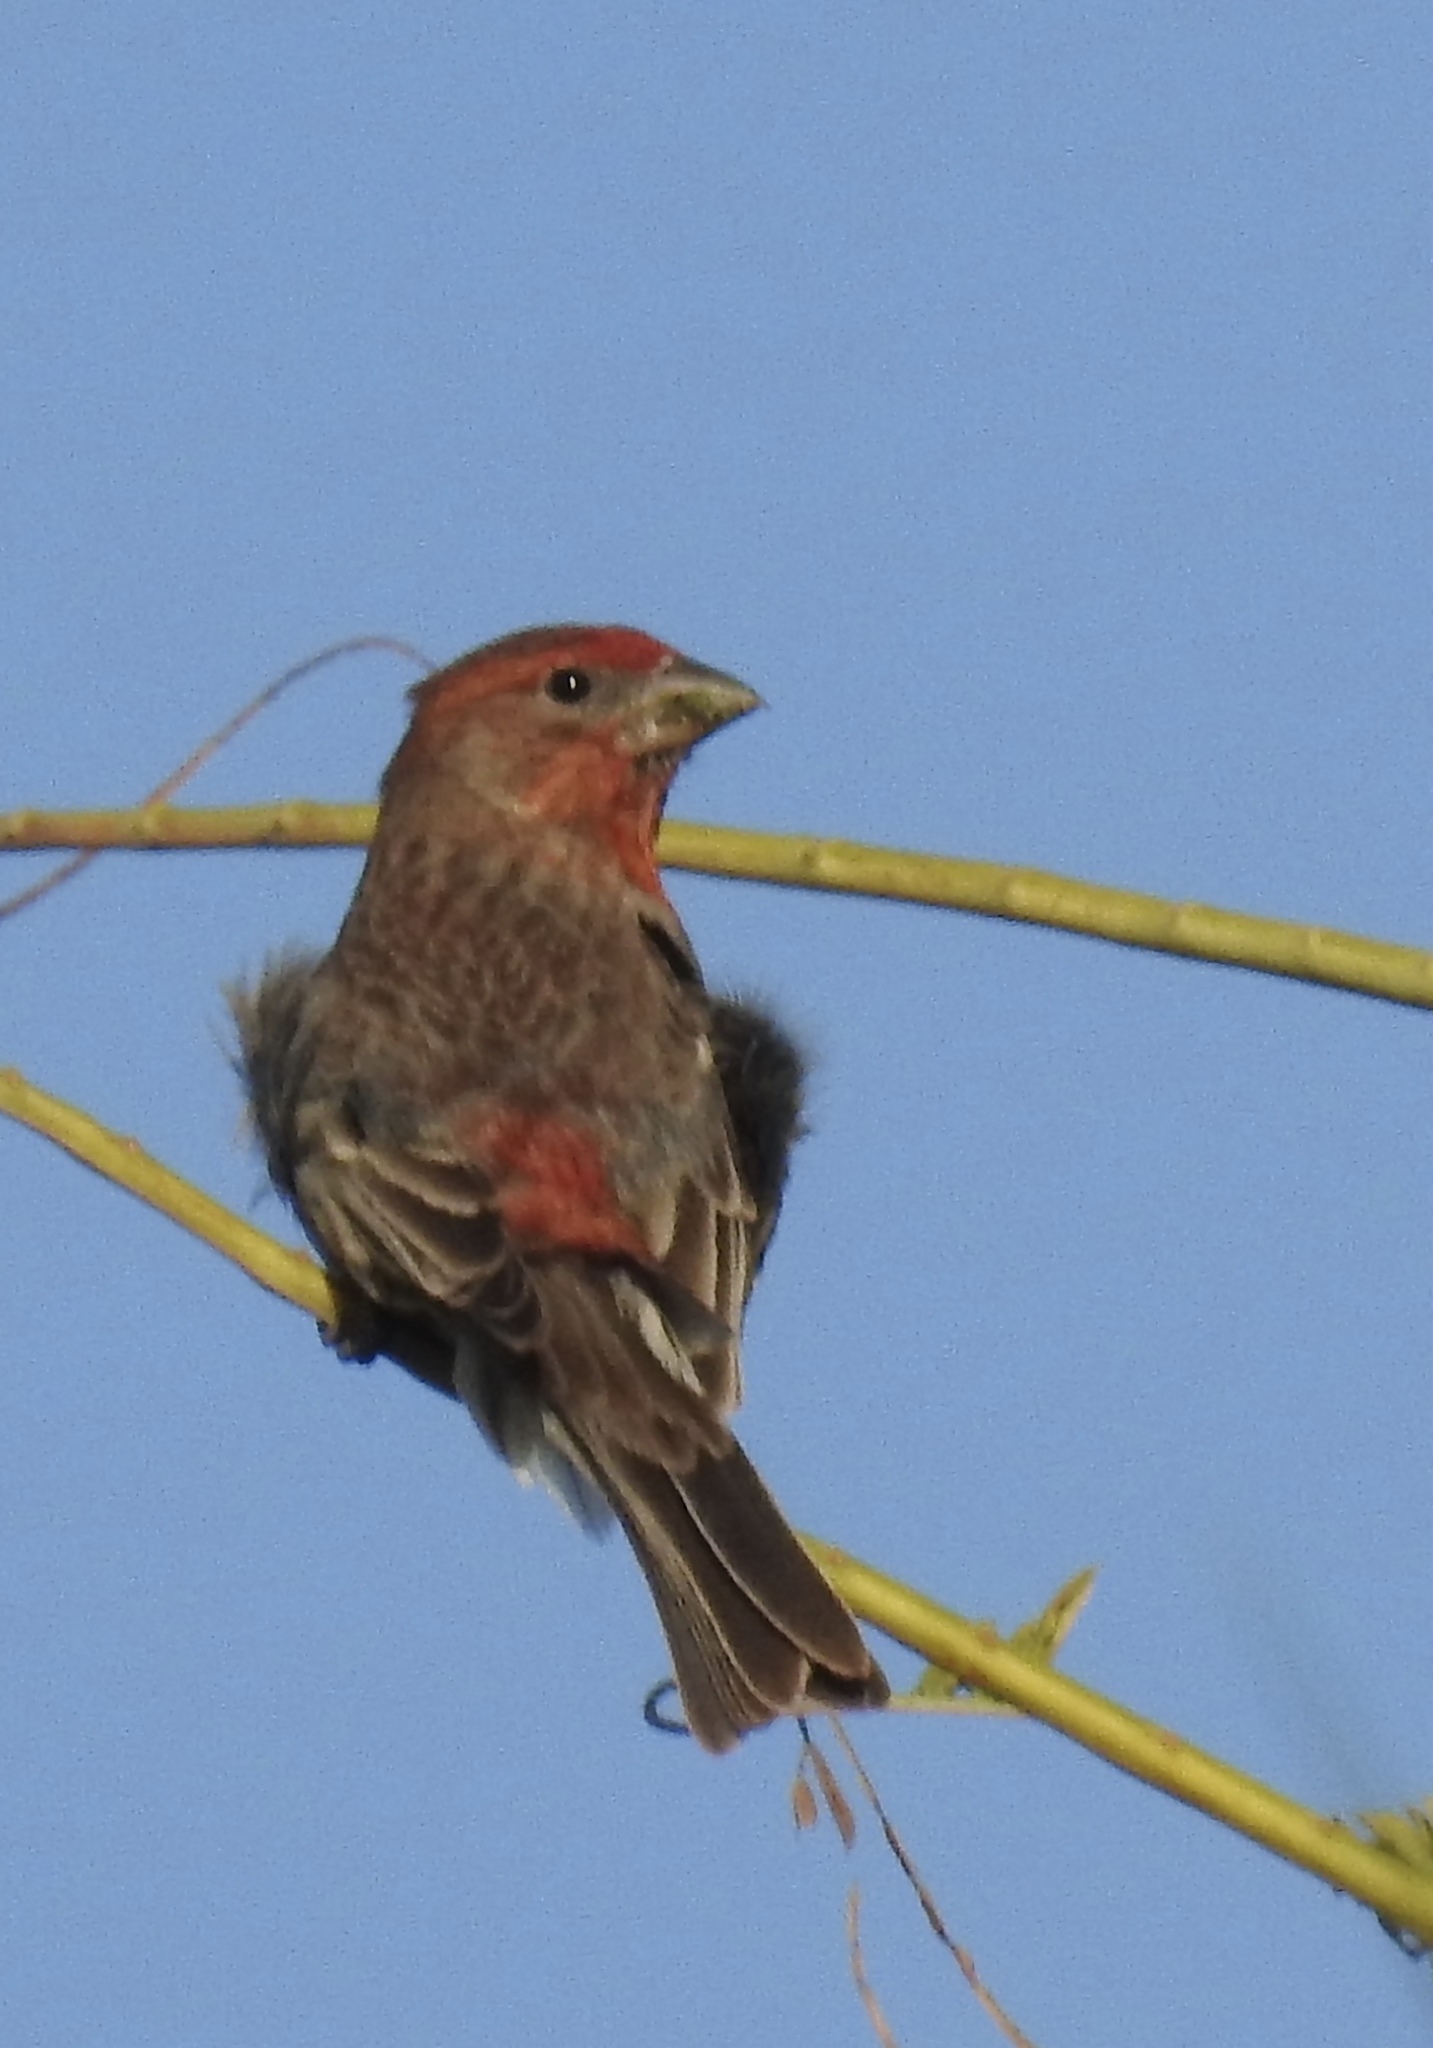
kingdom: Animalia
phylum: Chordata
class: Aves
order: Passeriformes
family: Fringillidae
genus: Haemorhous
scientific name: Haemorhous mexicanus
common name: House finch
